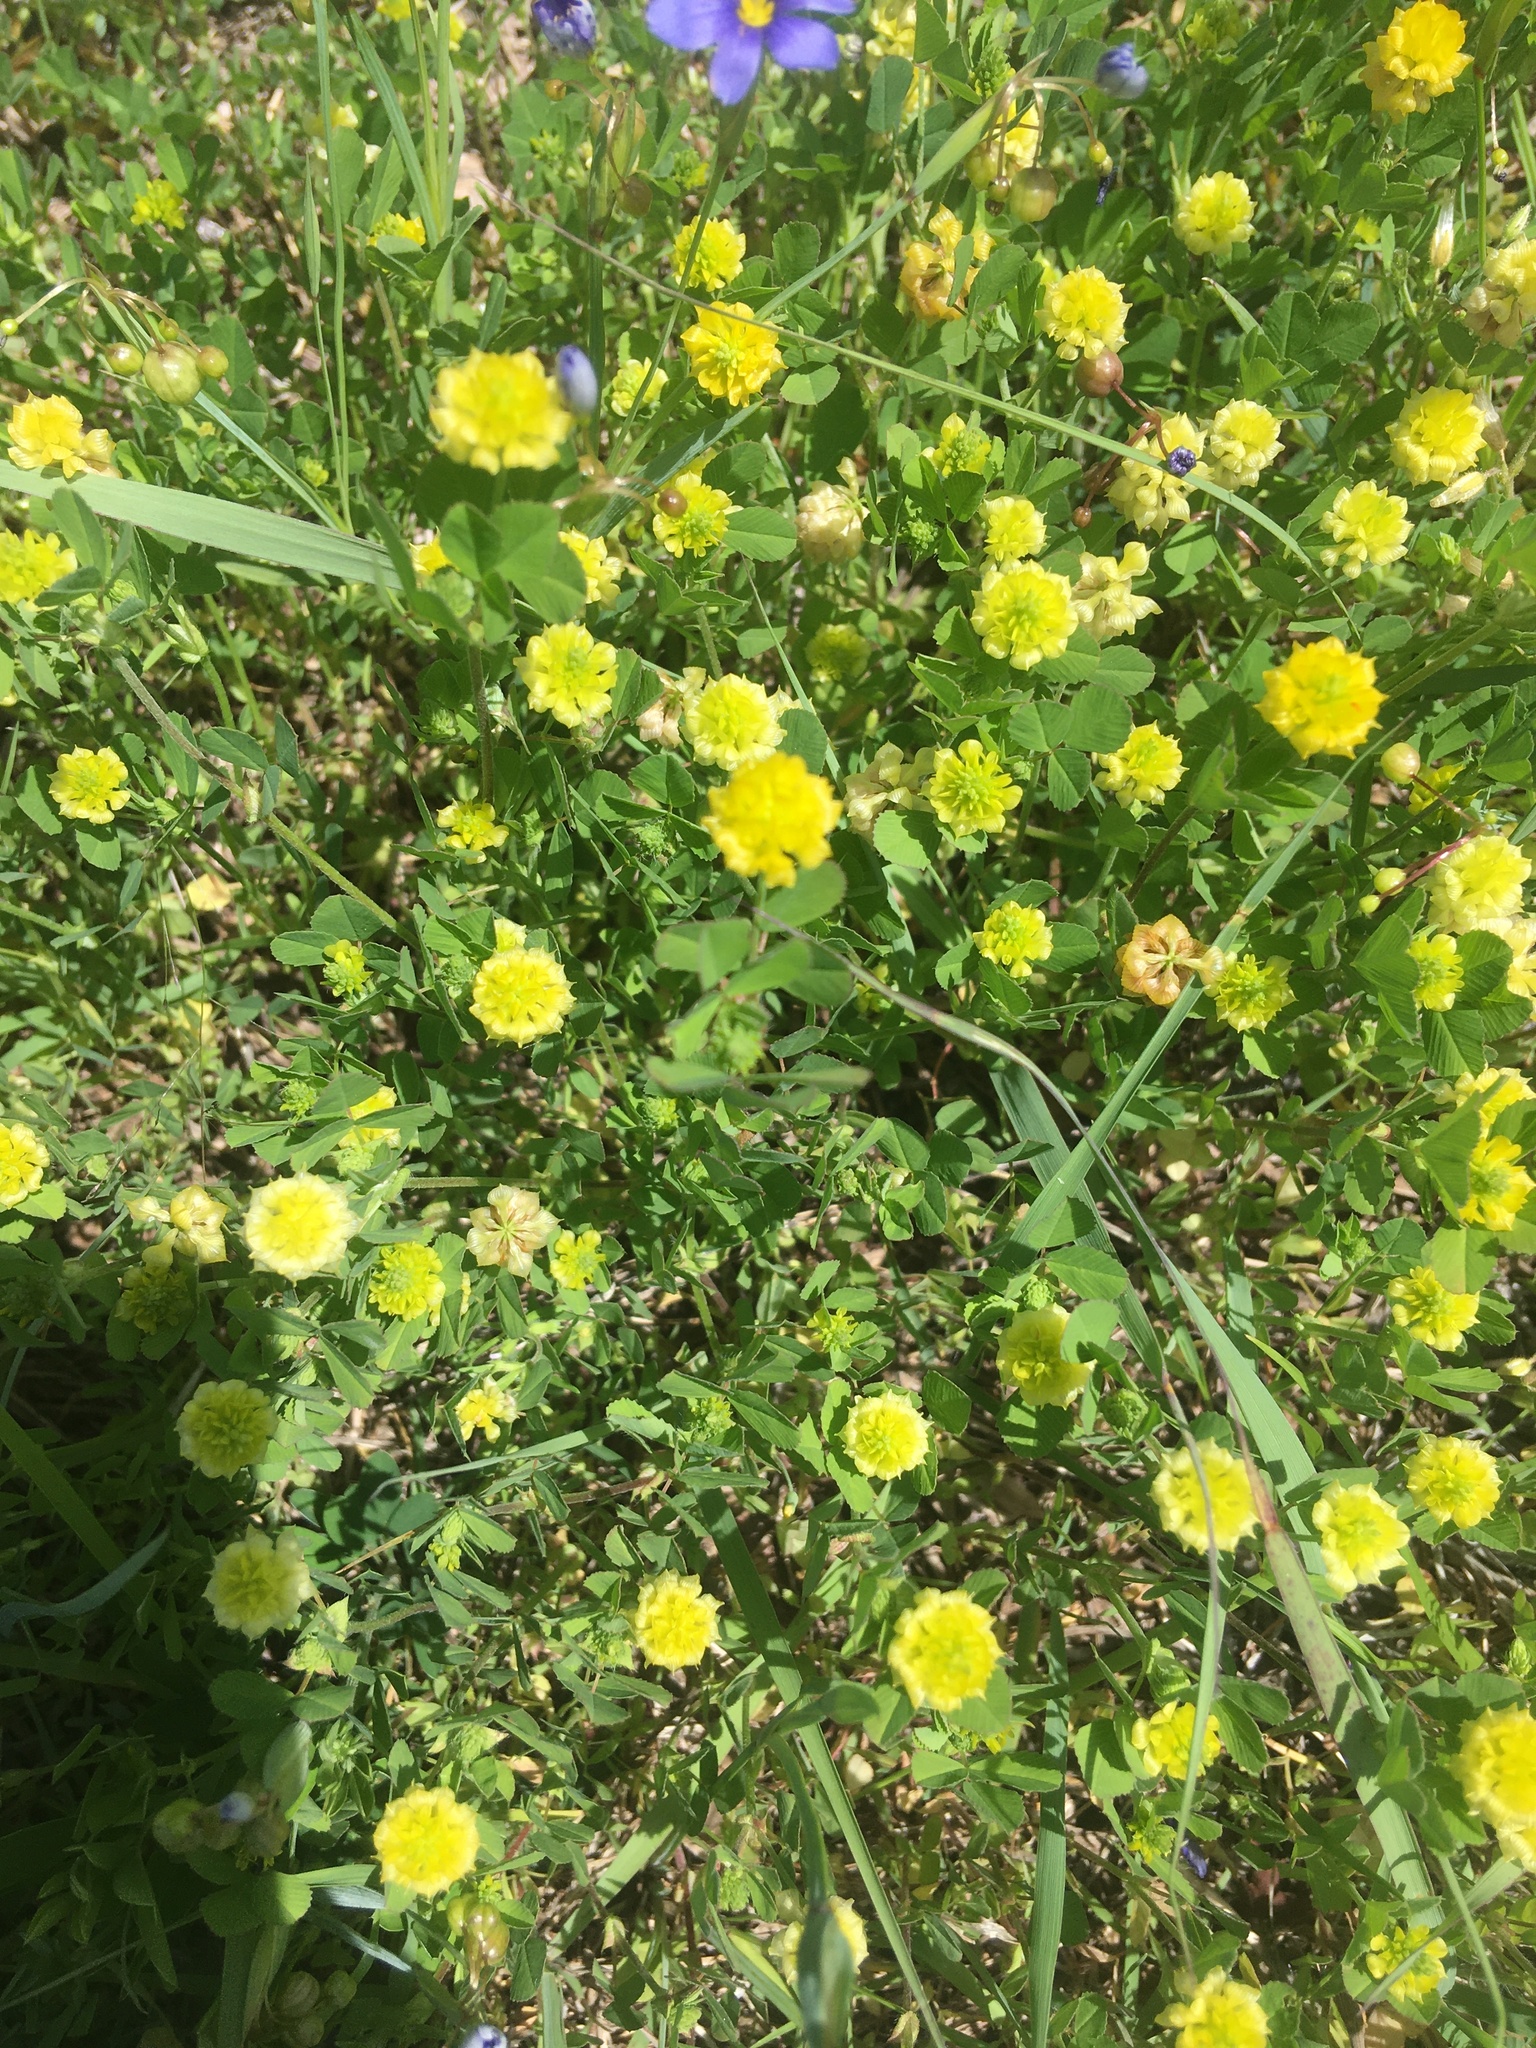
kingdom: Plantae
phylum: Tracheophyta
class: Magnoliopsida
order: Fabales
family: Fabaceae
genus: Trifolium
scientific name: Trifolium campestre
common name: Field clover
